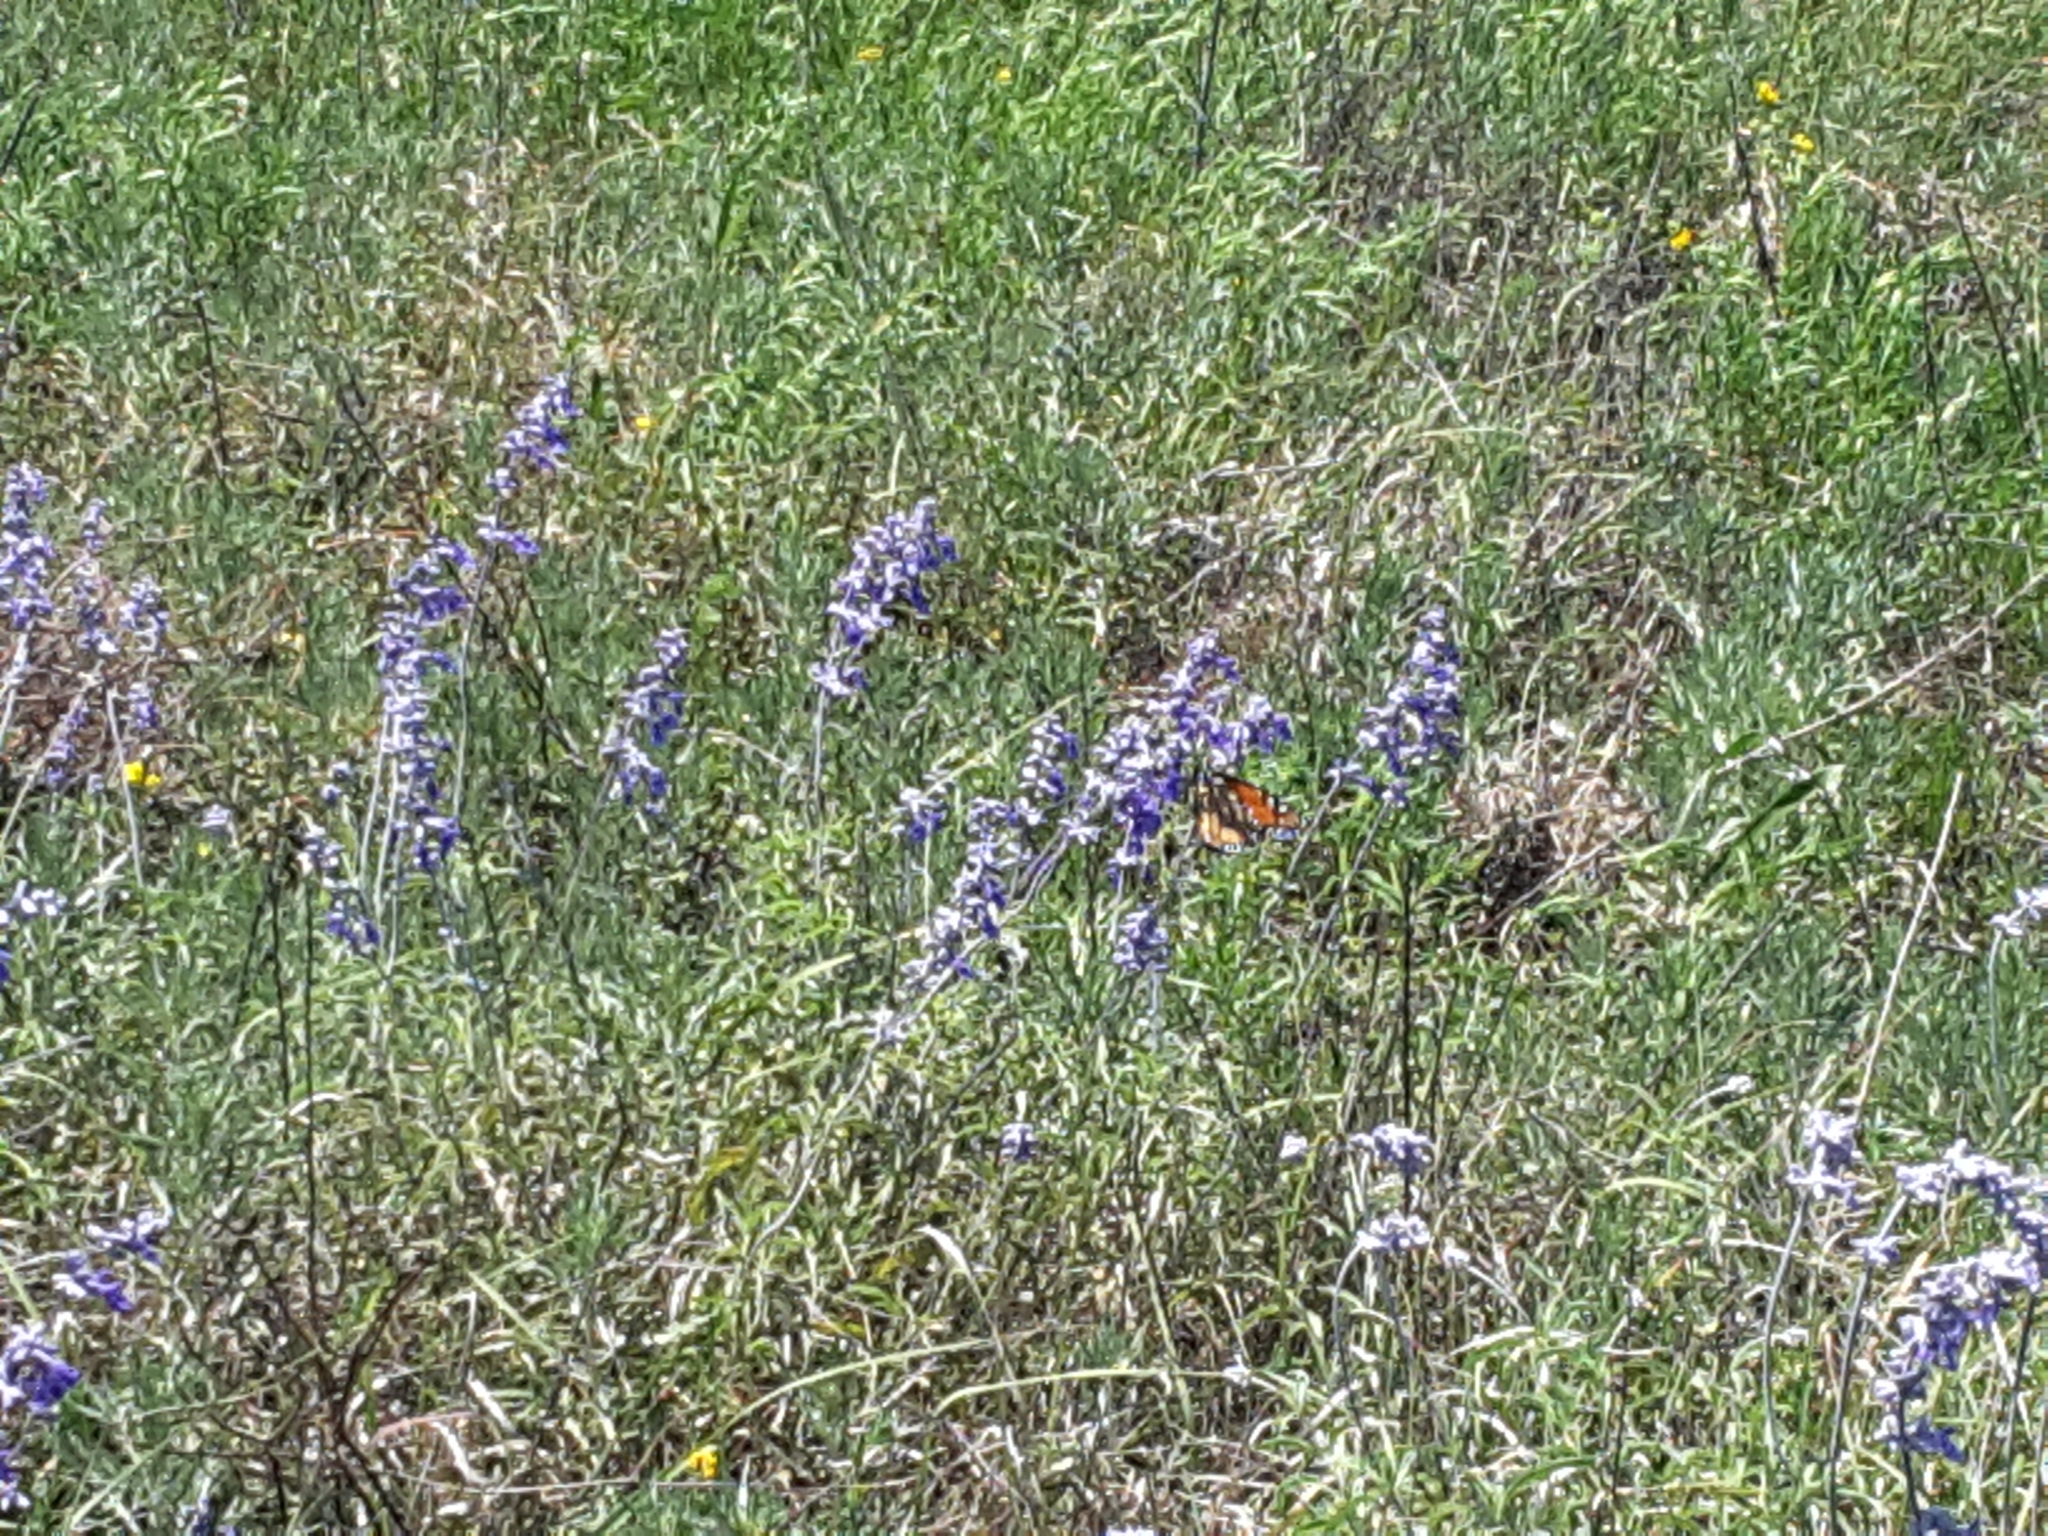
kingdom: Plantae
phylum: Tracheophyta
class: Magnoliopsida
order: Lamiales
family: Lamiaceae
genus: Salvia
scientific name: Salvia farinacea
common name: Mealy sage
